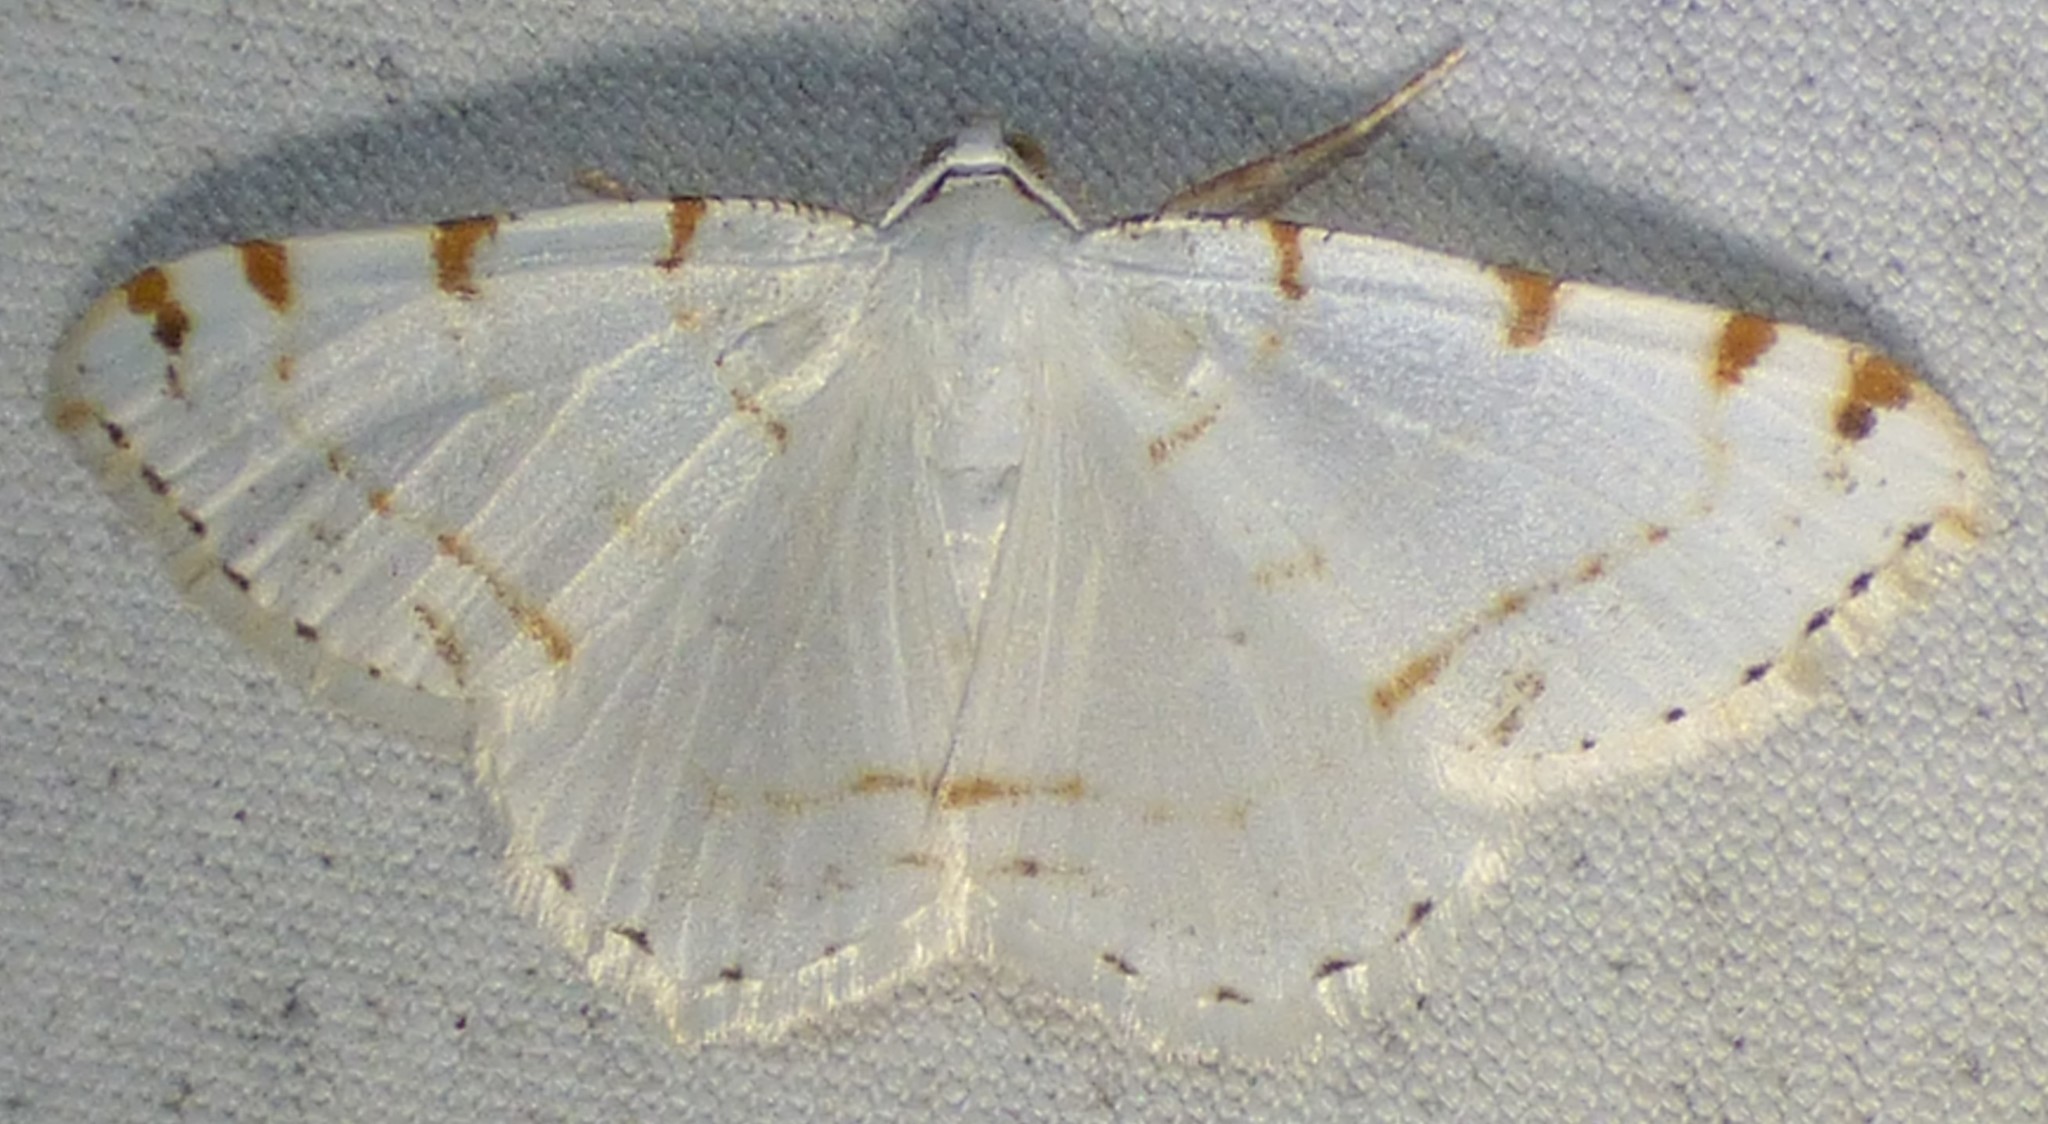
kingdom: Animalia
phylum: Arthropoda
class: Insecta
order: Lepidoptera
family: Geometridae
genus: Macaria
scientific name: Macaria pustularia
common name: Lesser maple spanworm moth
